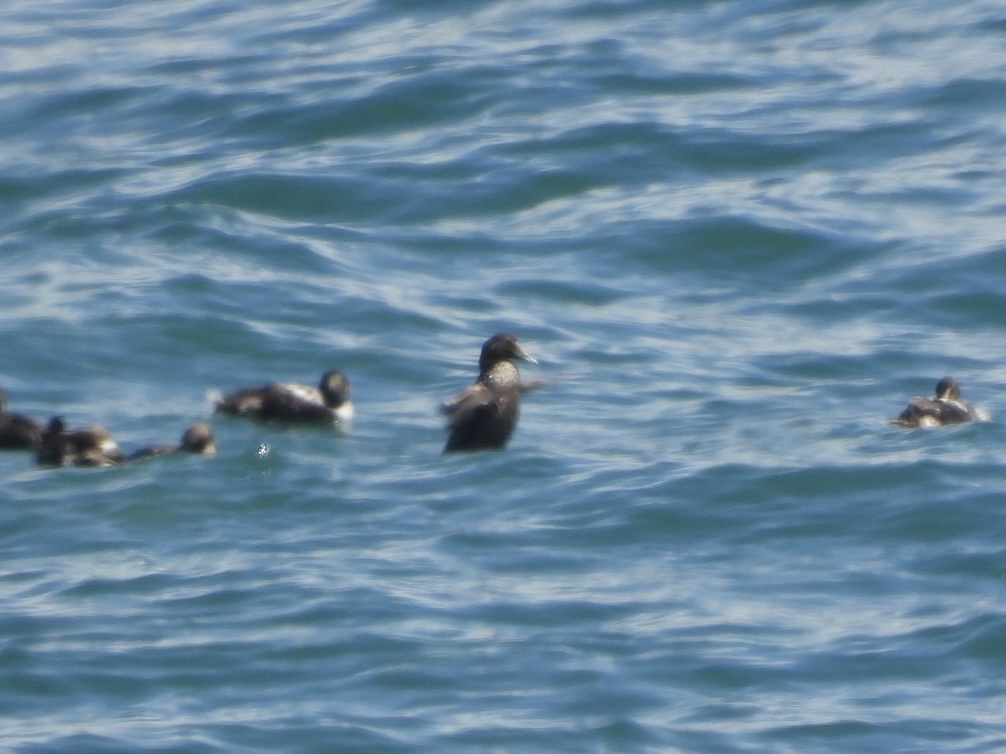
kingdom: Animalia
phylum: Chordata
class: Aves
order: Anseriformes
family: Anatidae
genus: Somateria
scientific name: Somateria mollissima
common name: Common eider
